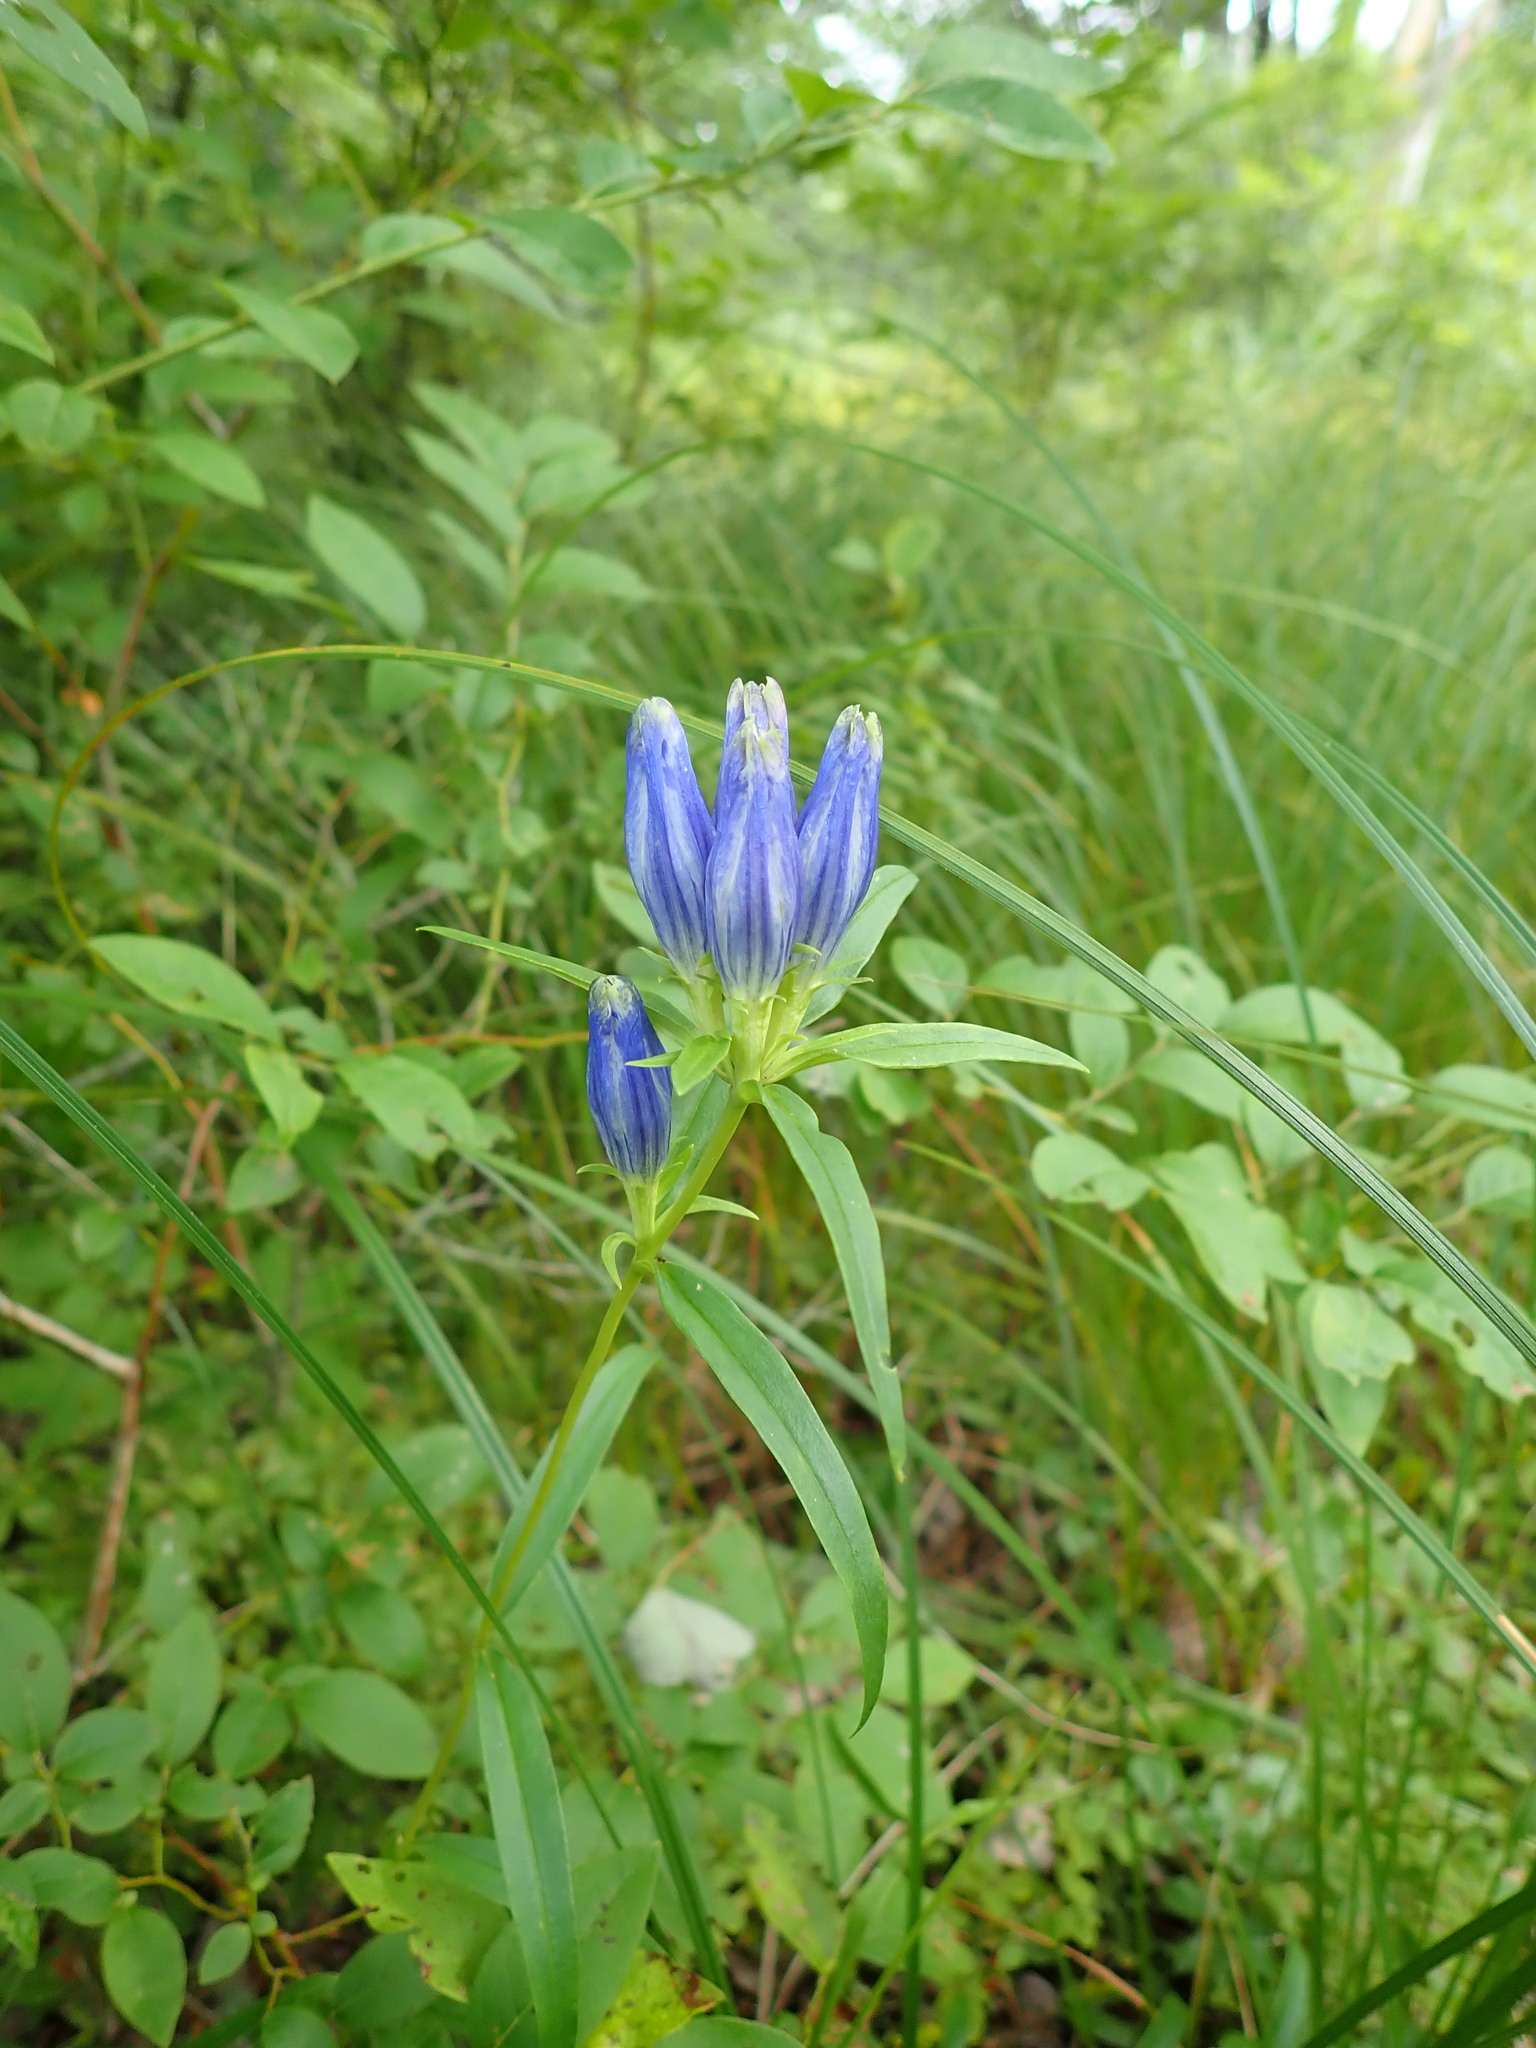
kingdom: Plantae
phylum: Tracheophyta
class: Magnoliopsida
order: Gentianales
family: Gentianaceae
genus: Gentiana
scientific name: Gentiana linearis
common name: Bastard gentian
